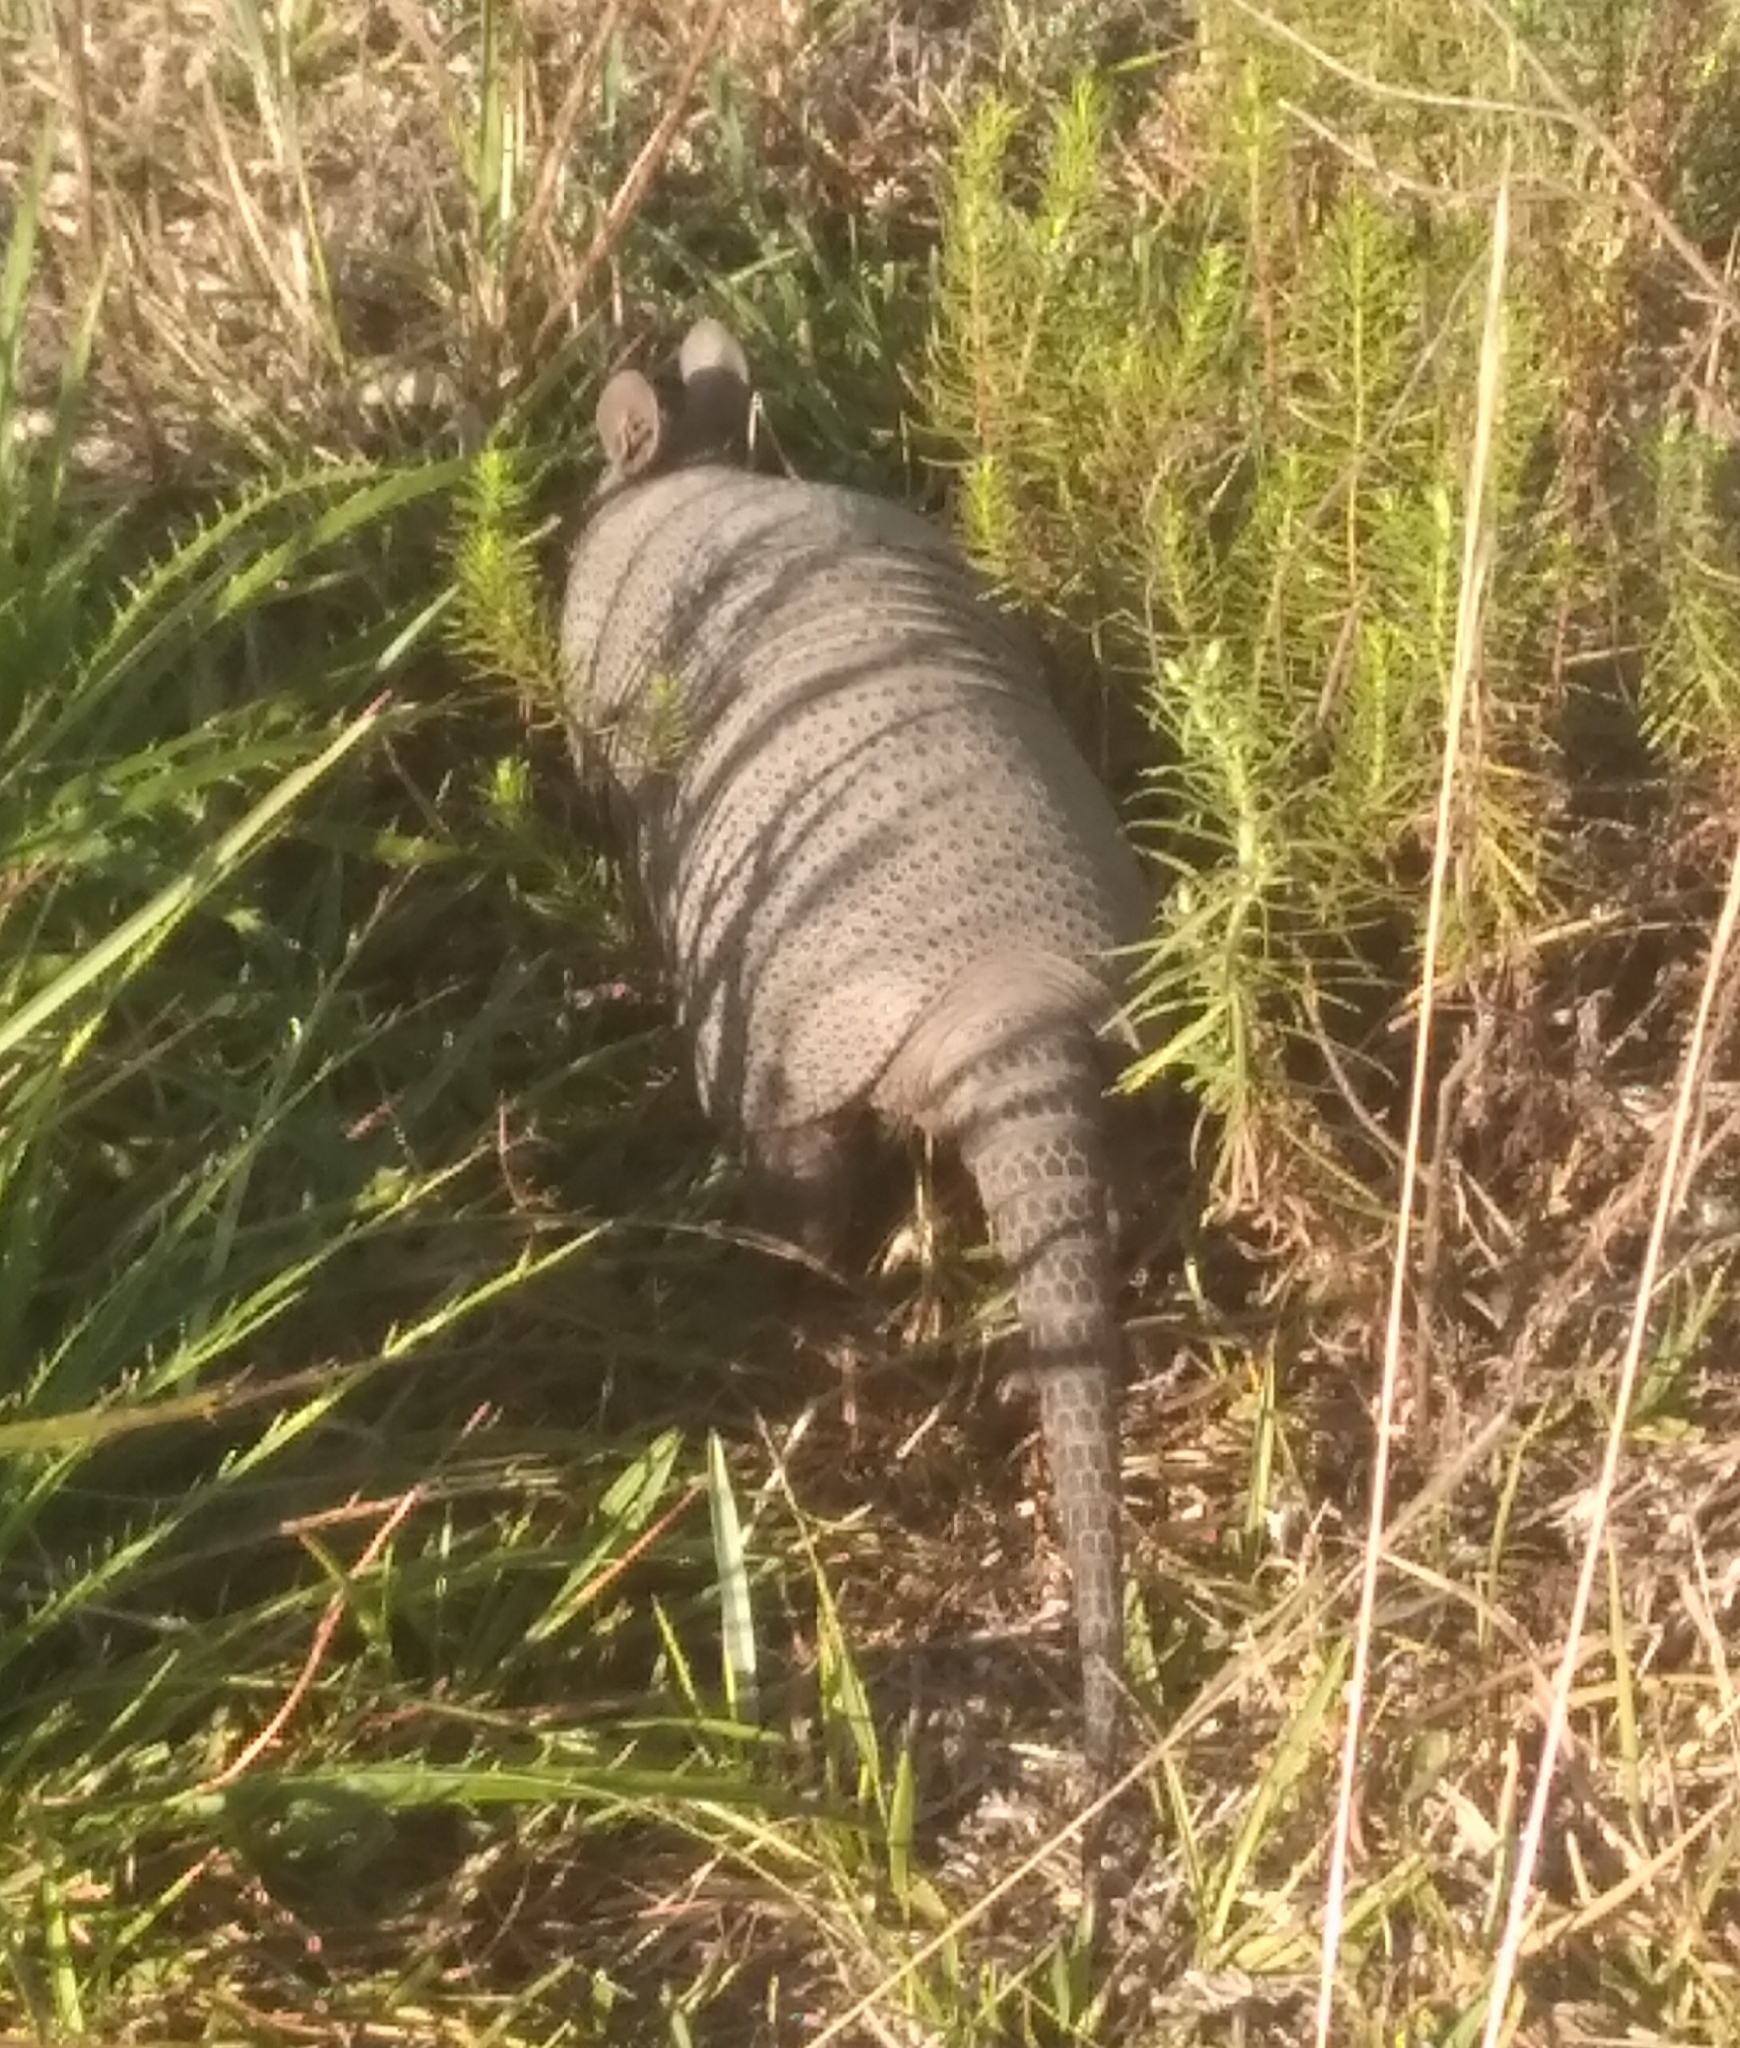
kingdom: Animalia
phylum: Chordata
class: Mammalia
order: Cingulata
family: Dasypodidae
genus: Dasypus
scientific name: Dasypus septemcinctus
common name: Seven-banded armadillo
